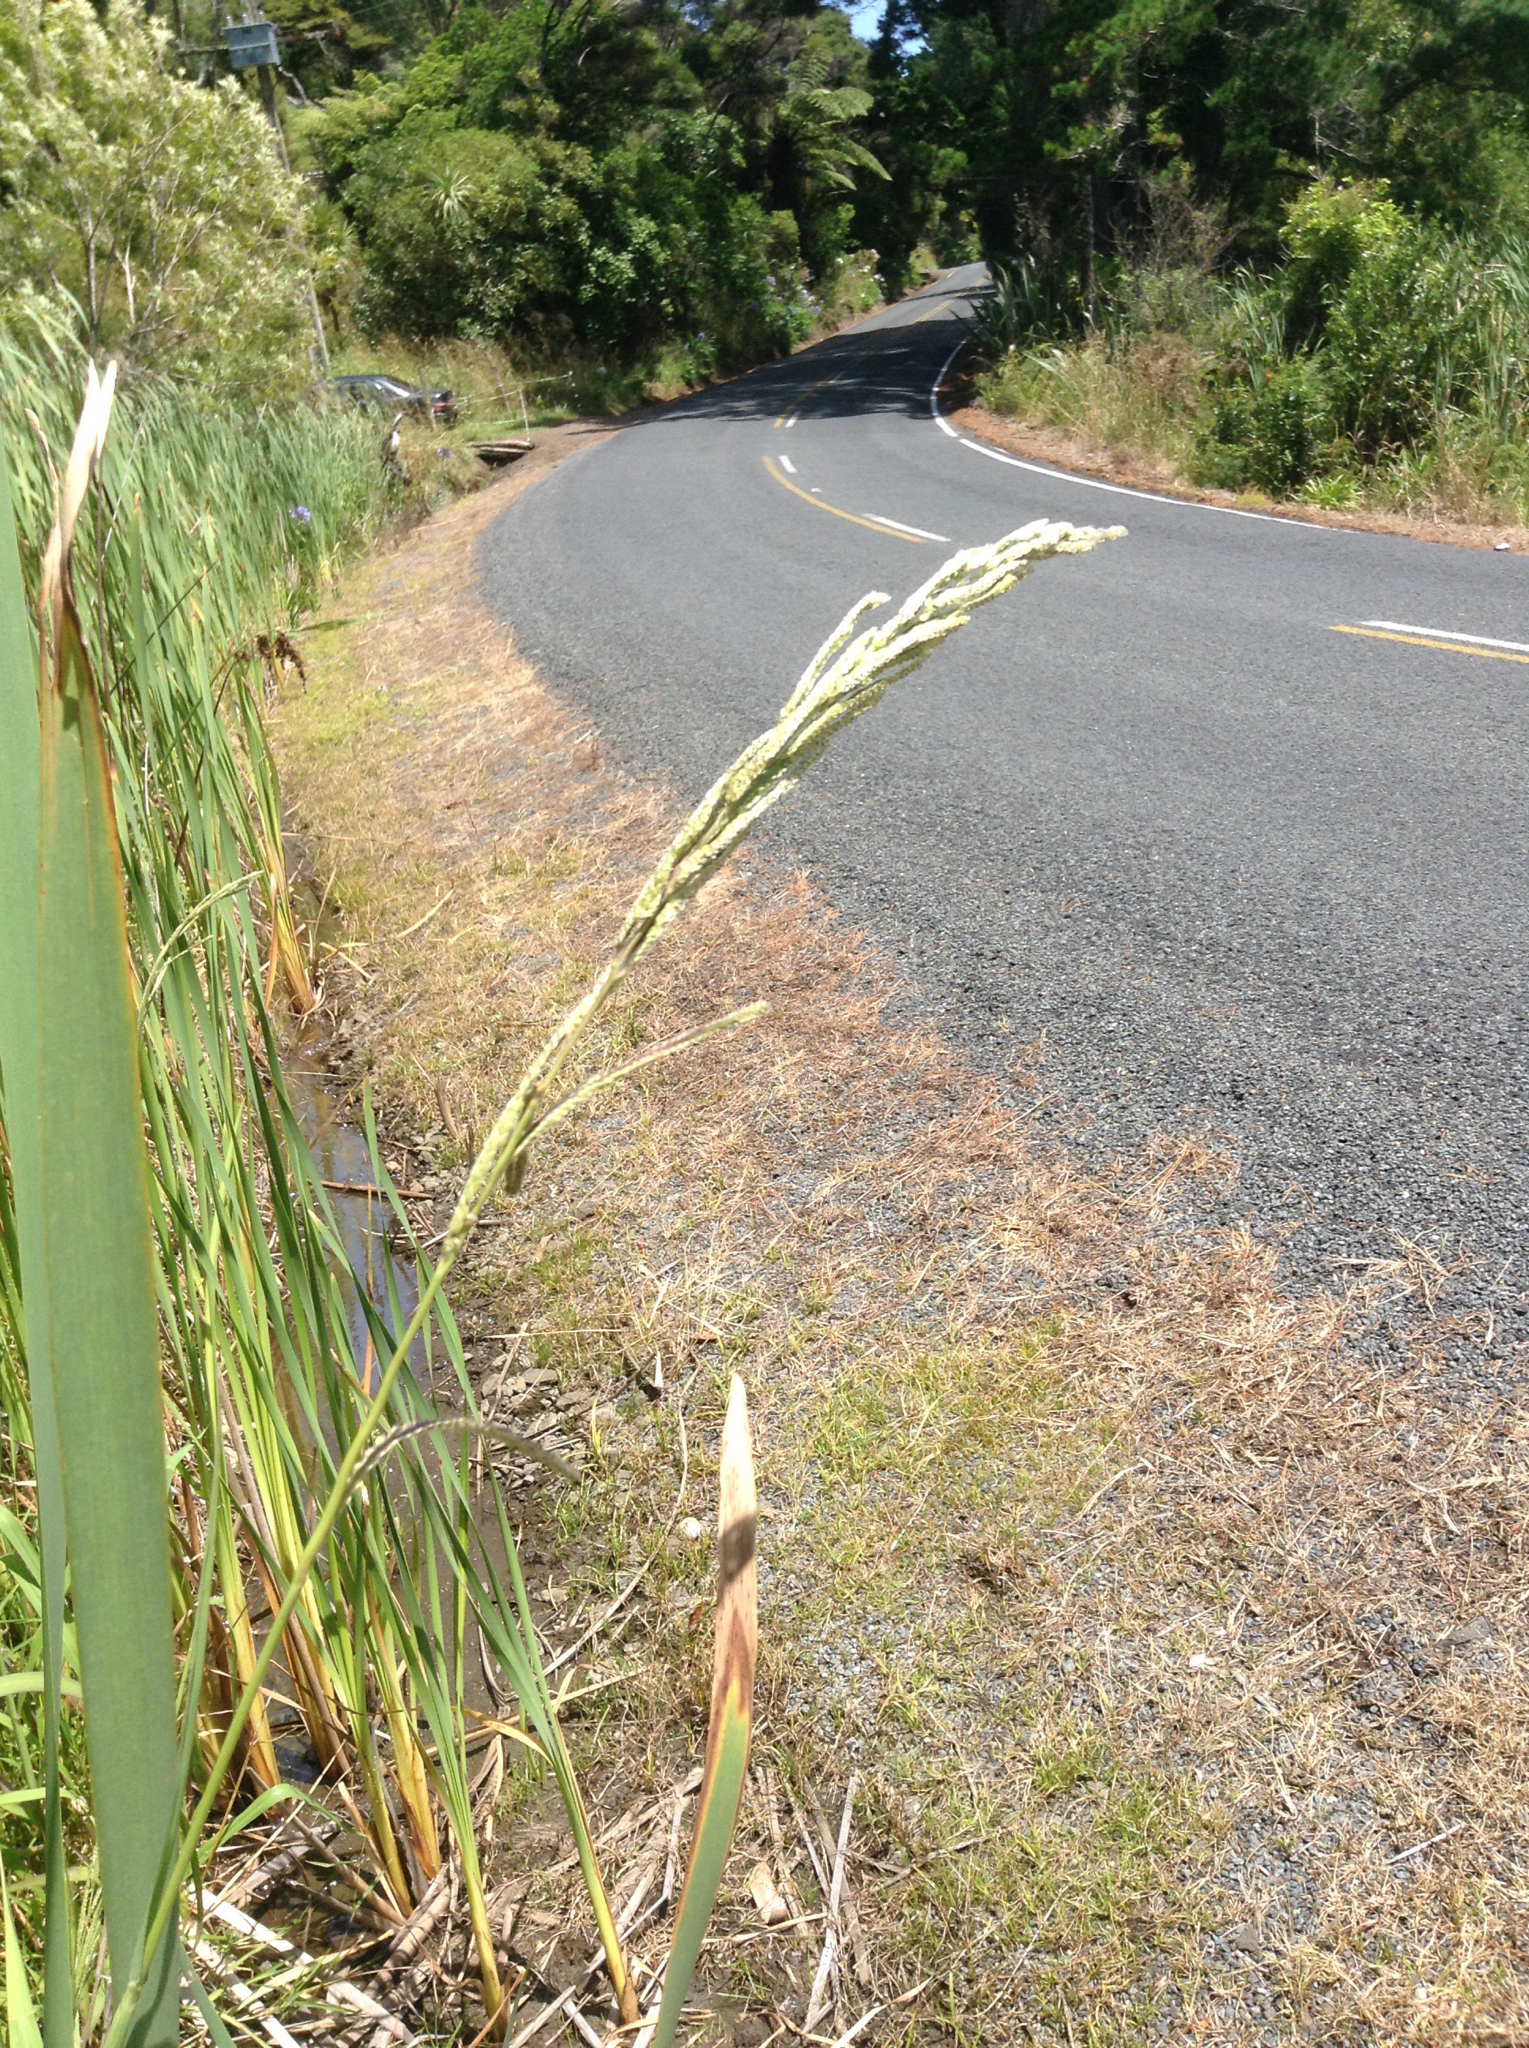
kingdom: Plantae
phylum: Tracheophyta
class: Liliopsida
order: Poales
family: Poaceae
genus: Paspalum
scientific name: Paspalum urvillei
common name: Vasey's grass
